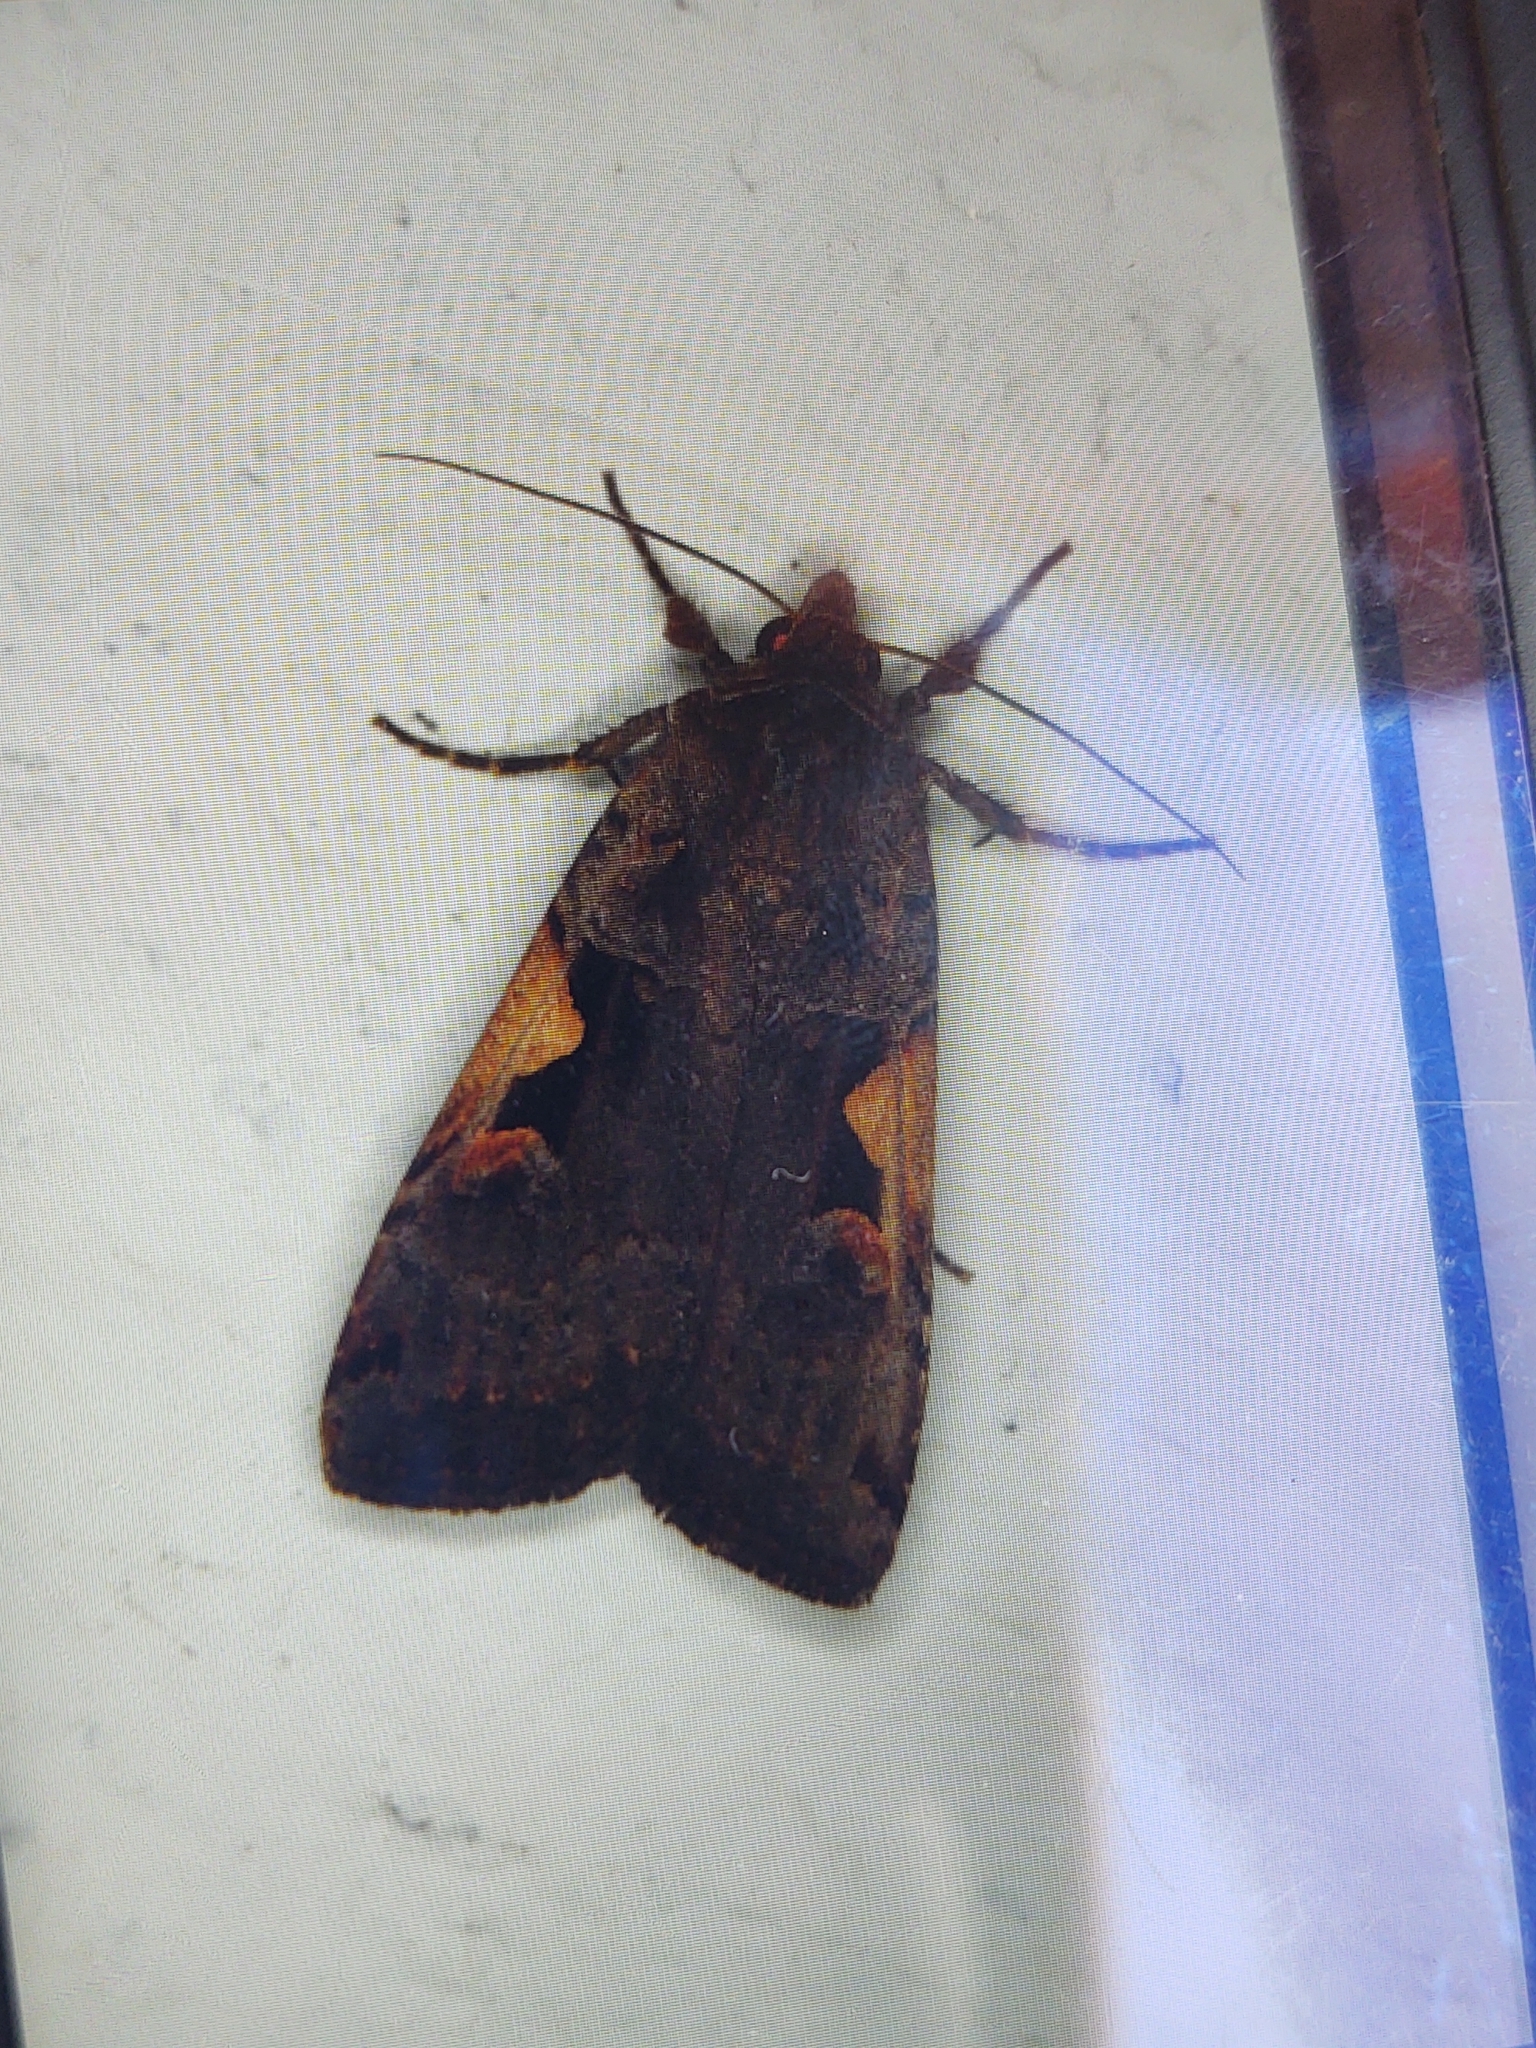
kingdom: Animalia
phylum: Arthropoda
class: Insecta
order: Lepidoptera
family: Noctuidae
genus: Xestia
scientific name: Xestia c-nigrum
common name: Setaceous hebrew character
